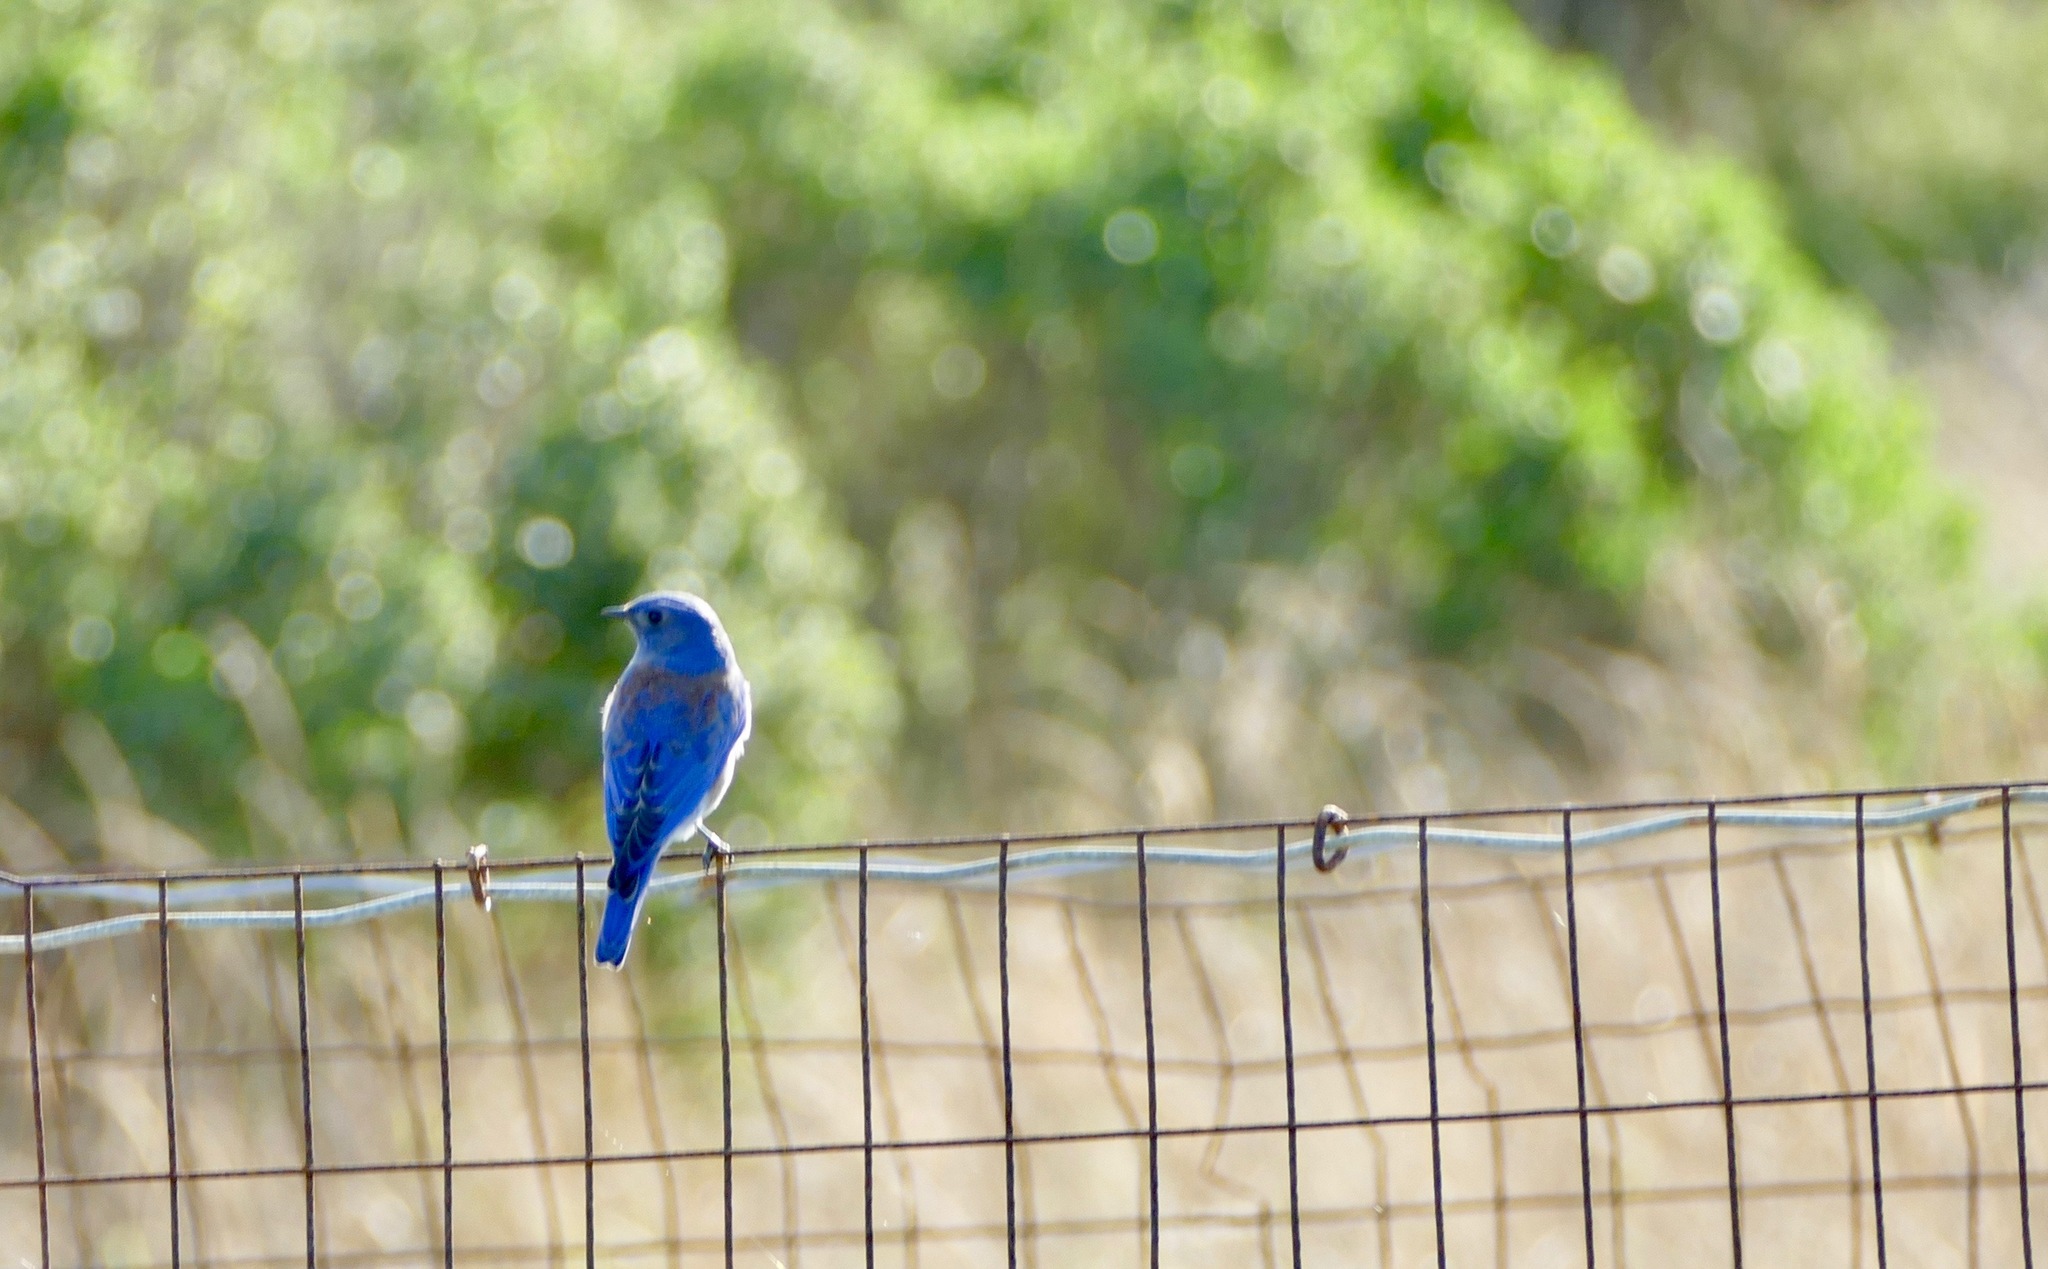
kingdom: Animalia
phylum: Chordata
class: Aves
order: Passeriformes
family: Turdidae
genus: Sialia
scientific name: Sialia mexicana
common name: Western bluebird
